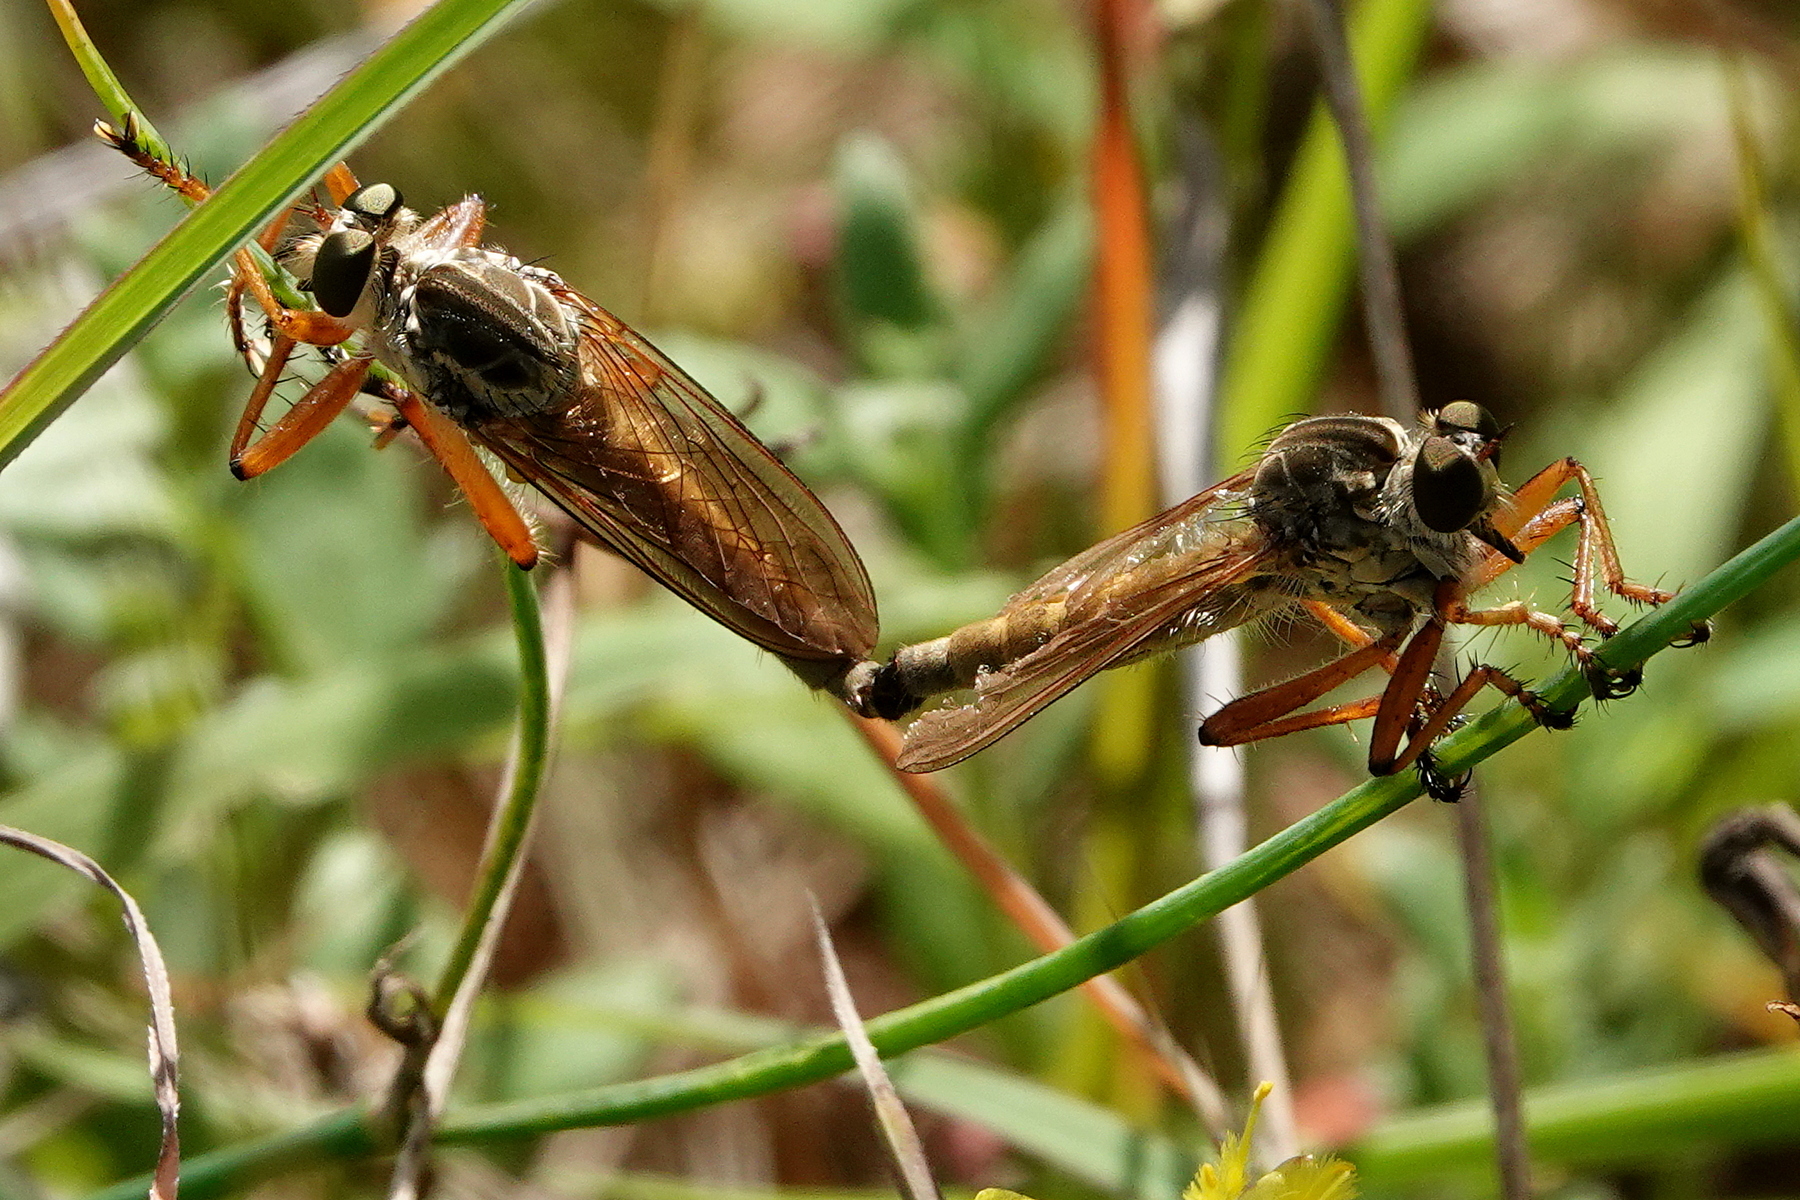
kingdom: Animalia
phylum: Arthropoda
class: Insecta
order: Diptera
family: Asilidae
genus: Zosteria
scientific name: Zosteria fulvipubescens
